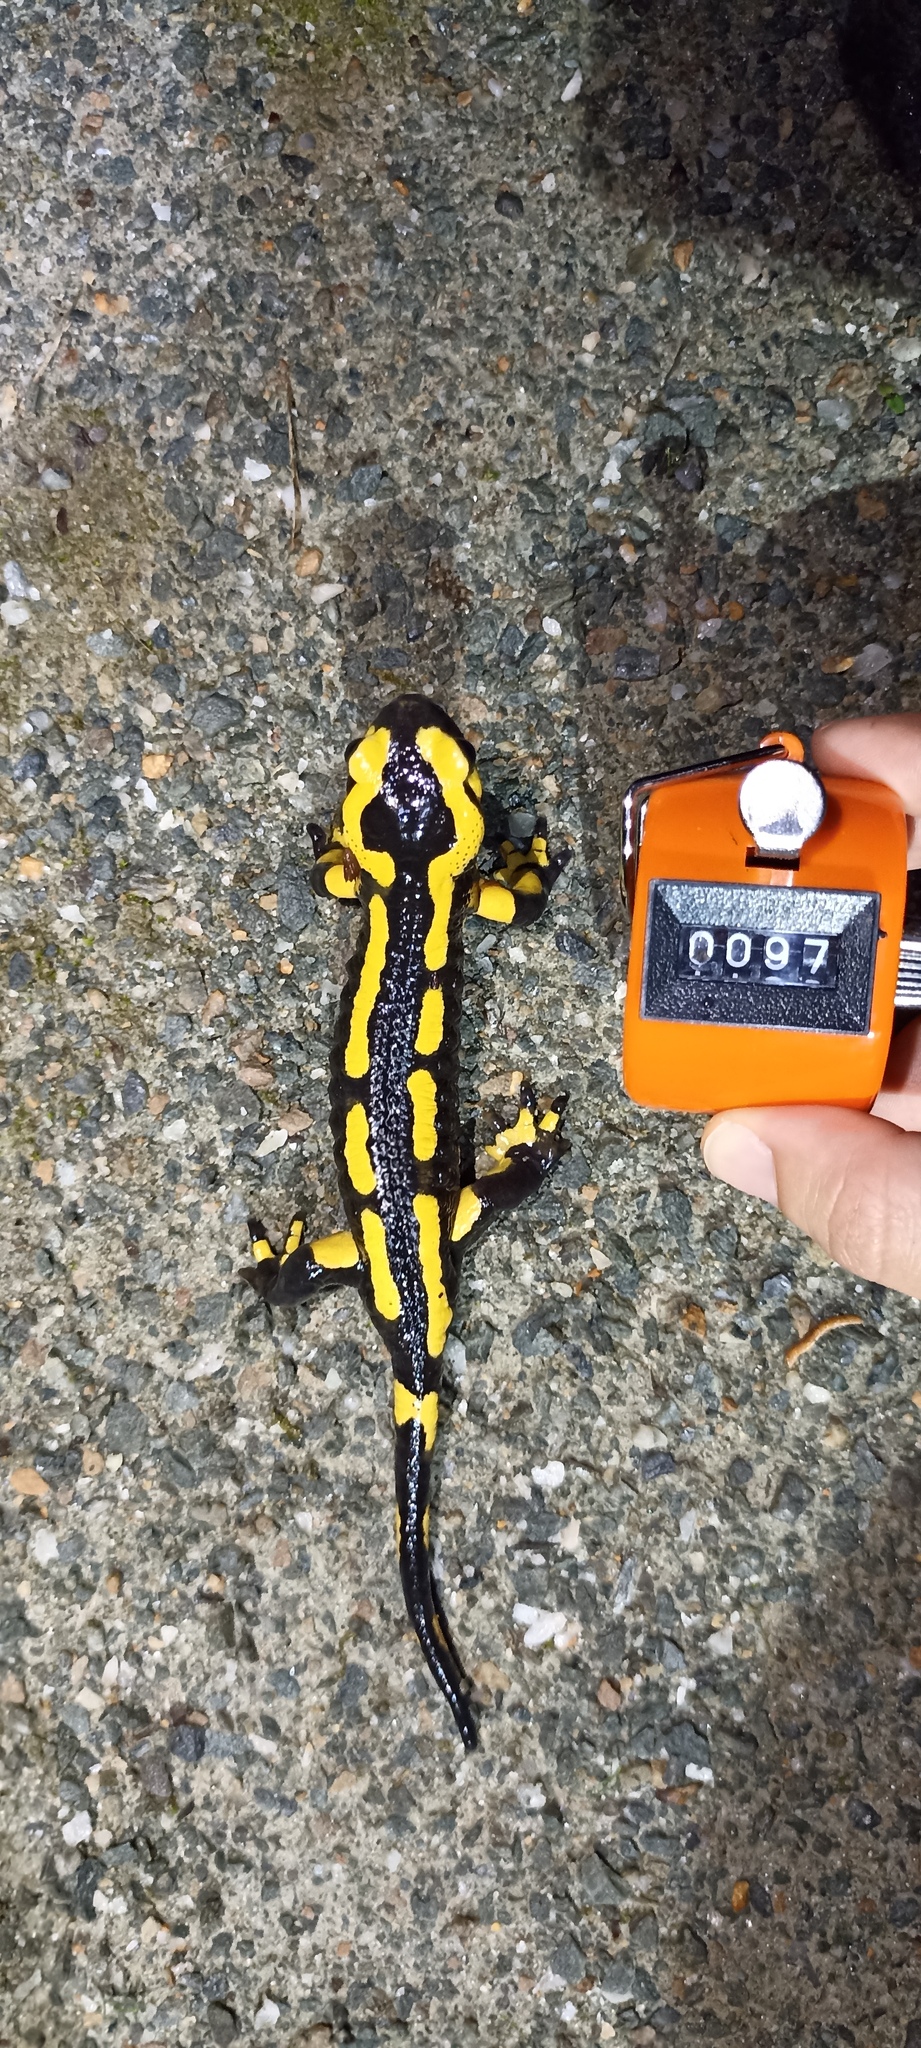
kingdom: Animalia
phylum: Chordata
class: Amphibia
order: Caudata
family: Salamandridae
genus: Salamandra
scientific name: Salamandra salamandra
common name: Fire salamander
